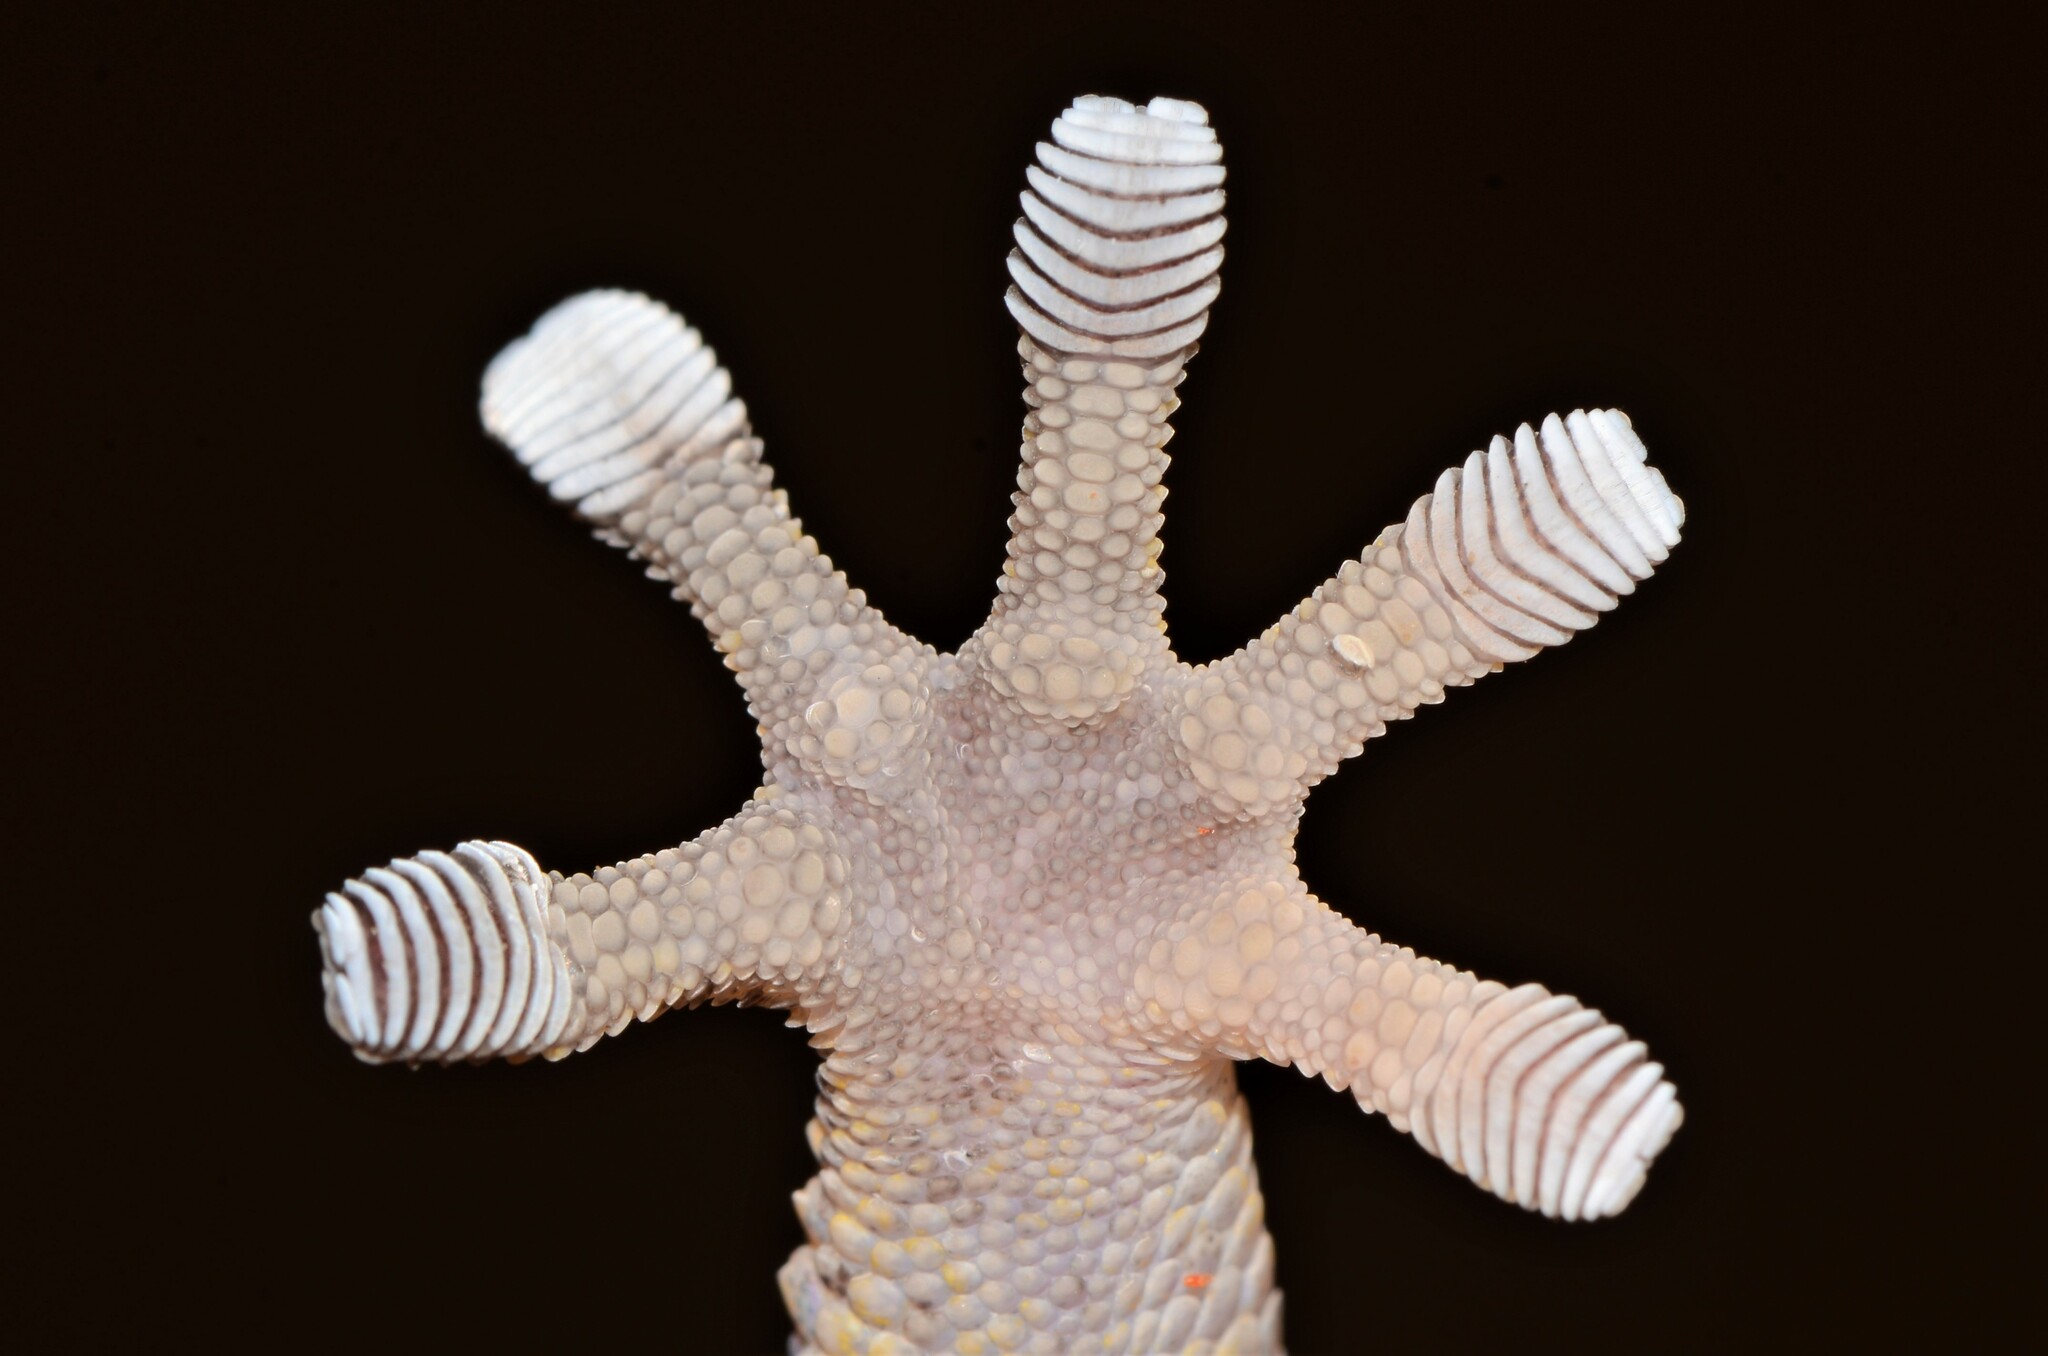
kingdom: Animalia
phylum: Chordata
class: Squamata
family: Gekkonidae
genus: Chondrodactylus
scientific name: Chondrodactylus laevigatus
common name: Fischer's thick-toed gecko
